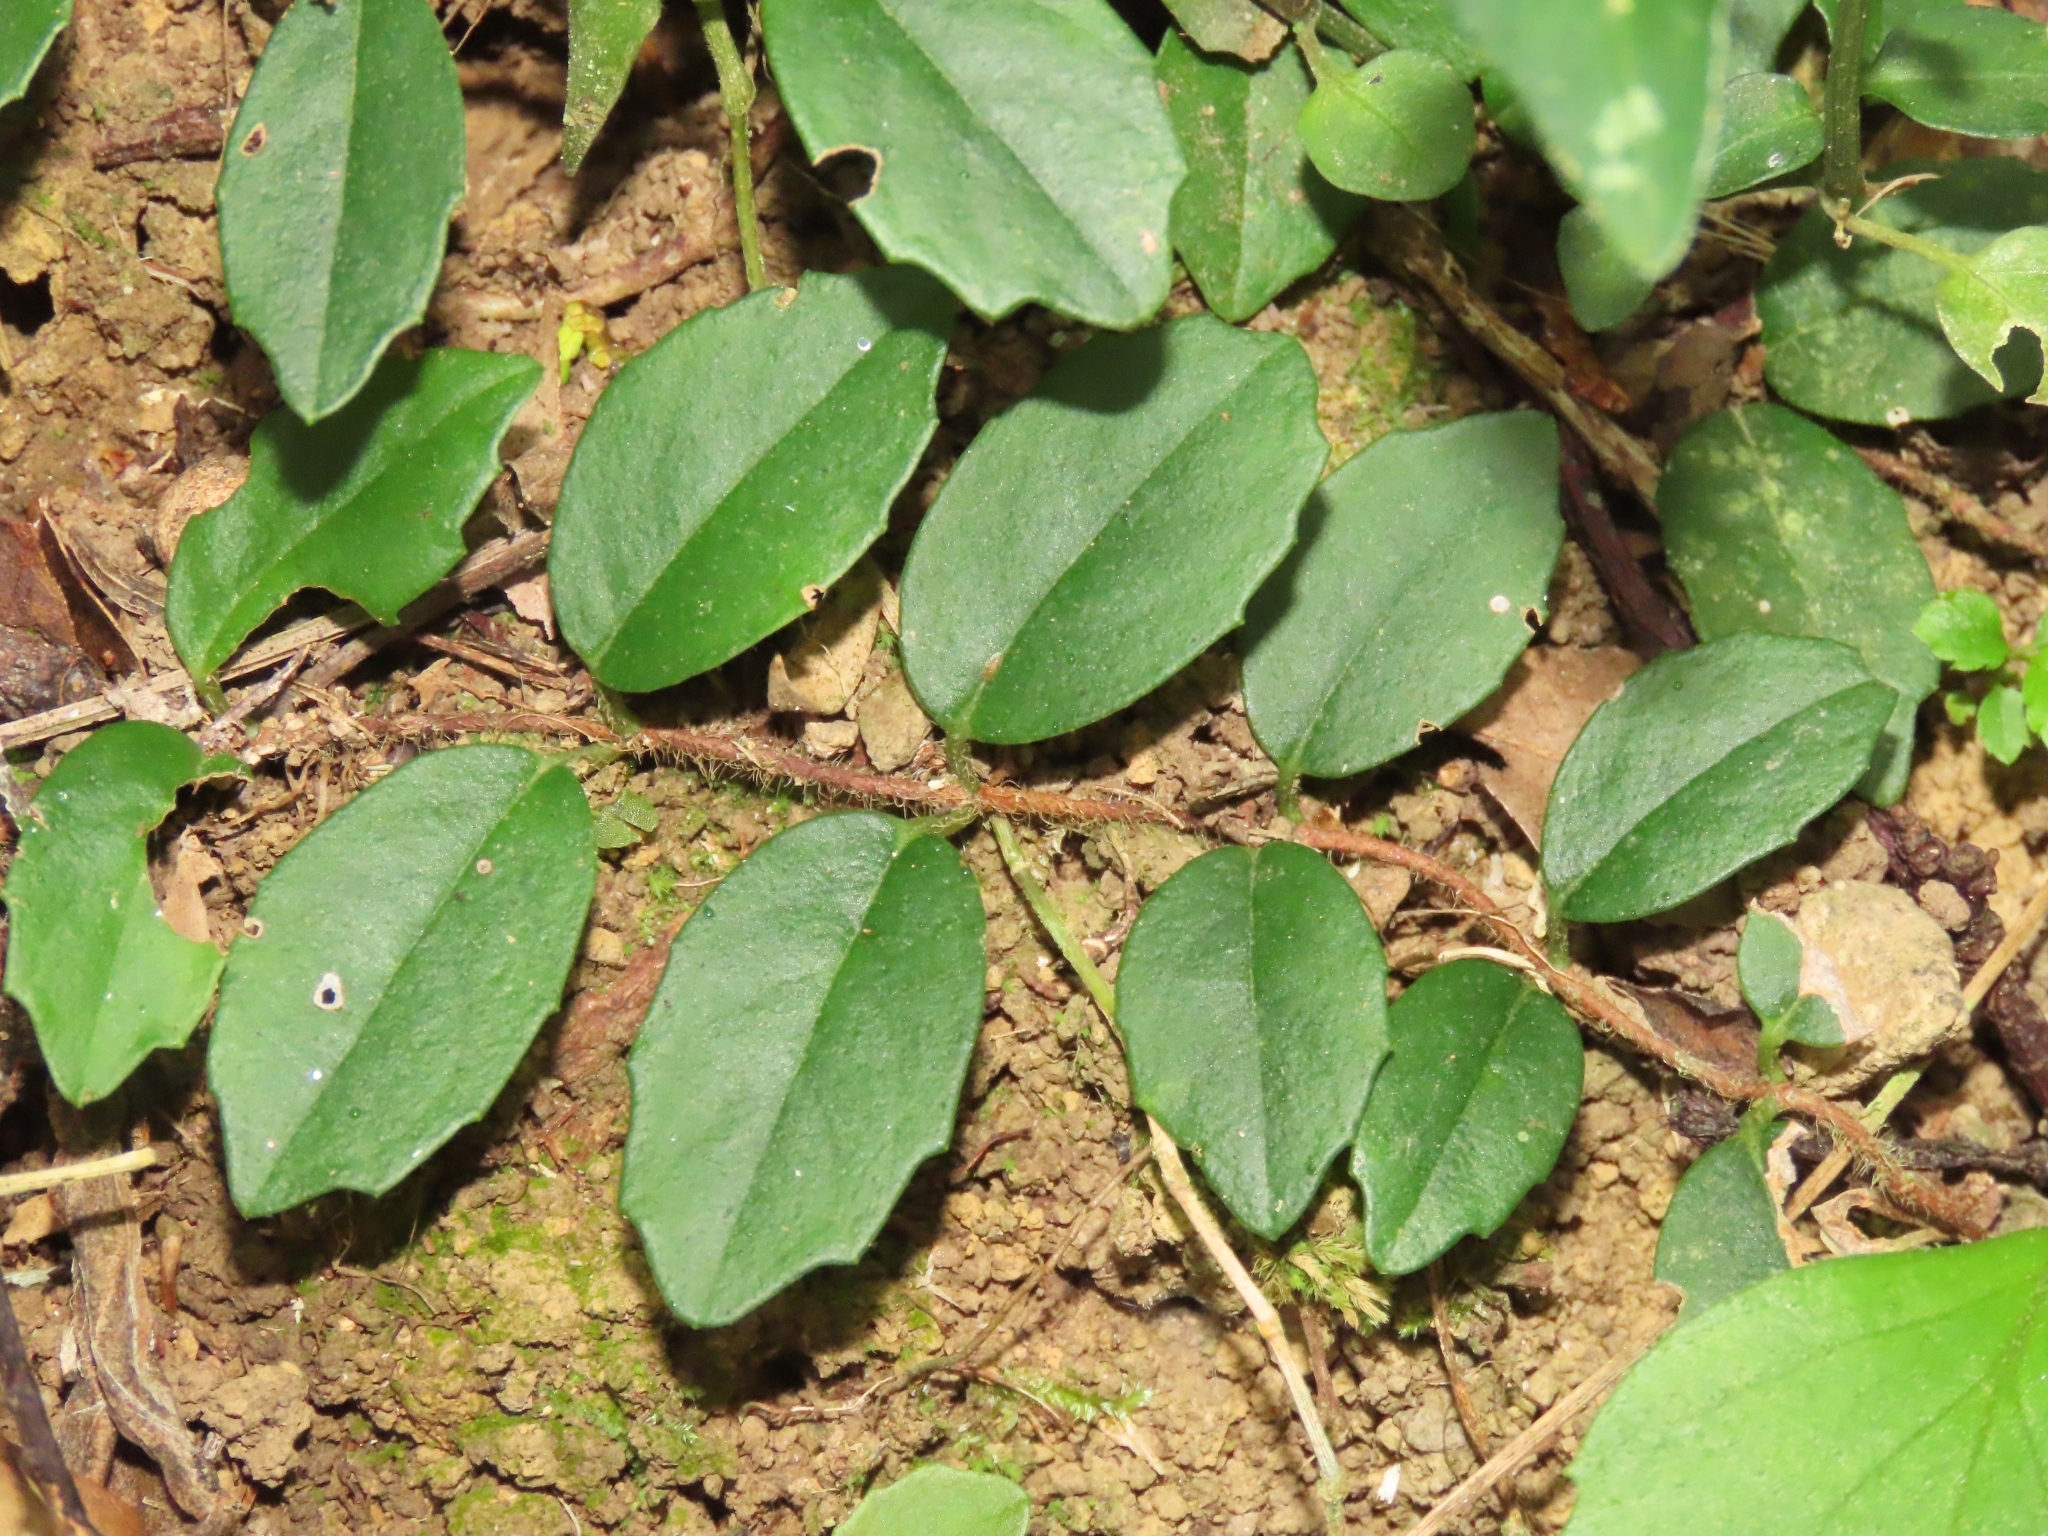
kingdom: Plantae
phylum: Tracheophyta
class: Magnoliopsida
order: Cornales
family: Hydrangeaceae
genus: Hydrangea
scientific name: Hydrangea viburnoides
